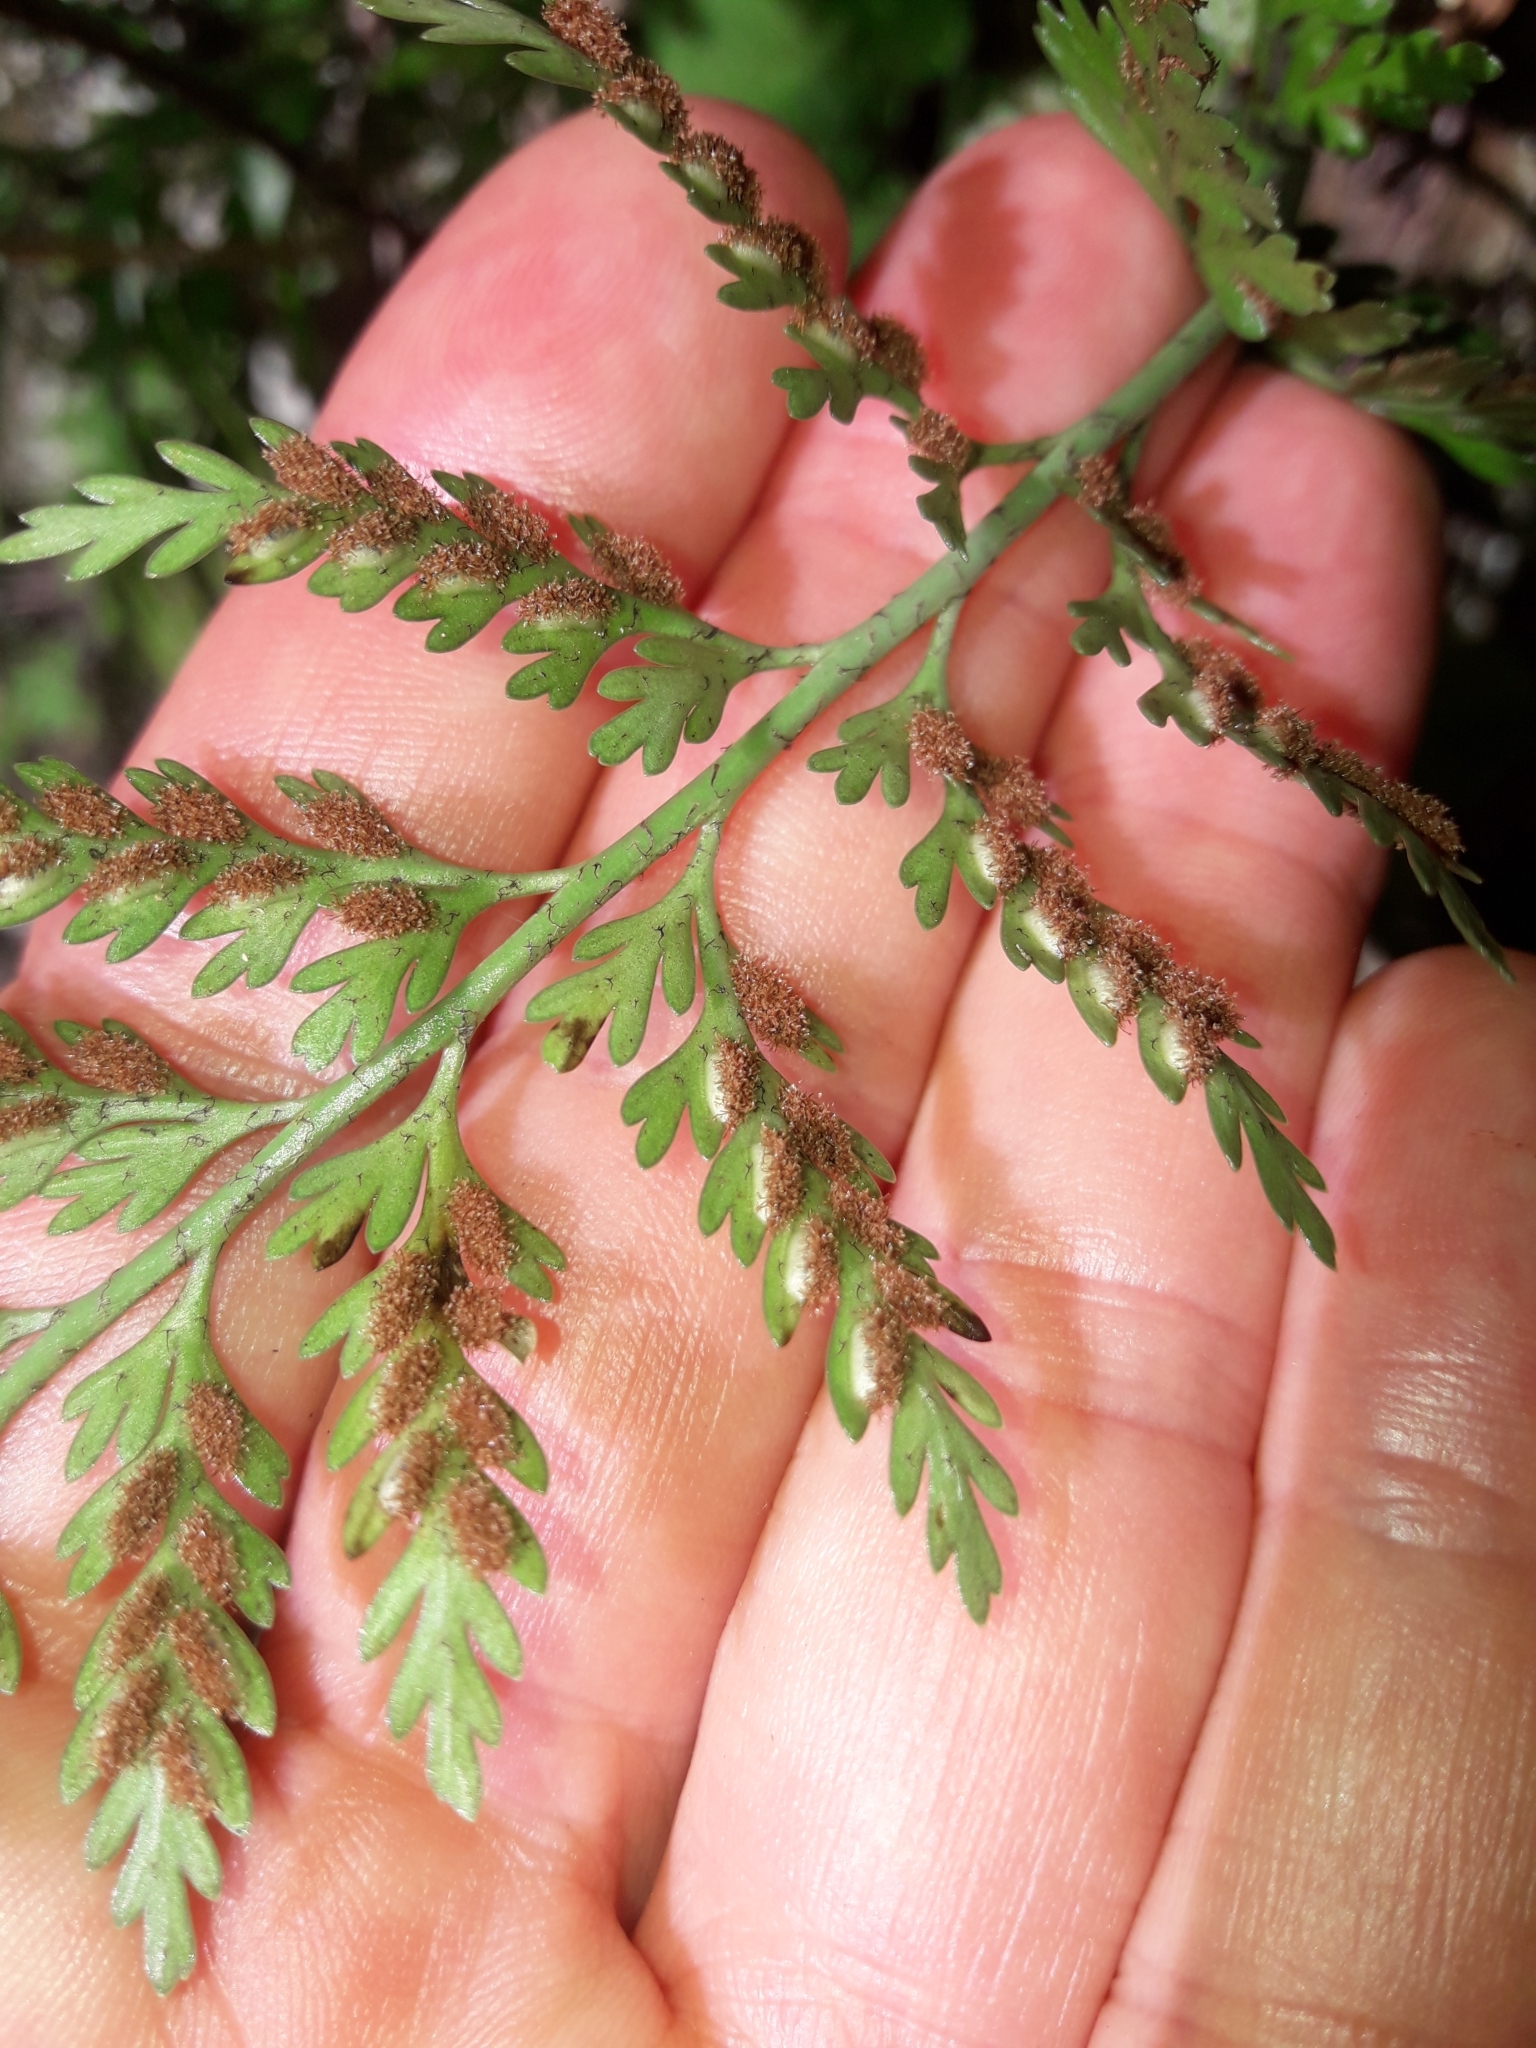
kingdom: Plantae
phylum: Tracheophyta
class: Polypodiopsida
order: Polypodiales
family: Aspleniaceae
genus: Asplenium
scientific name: Asplenium appendiculatum
